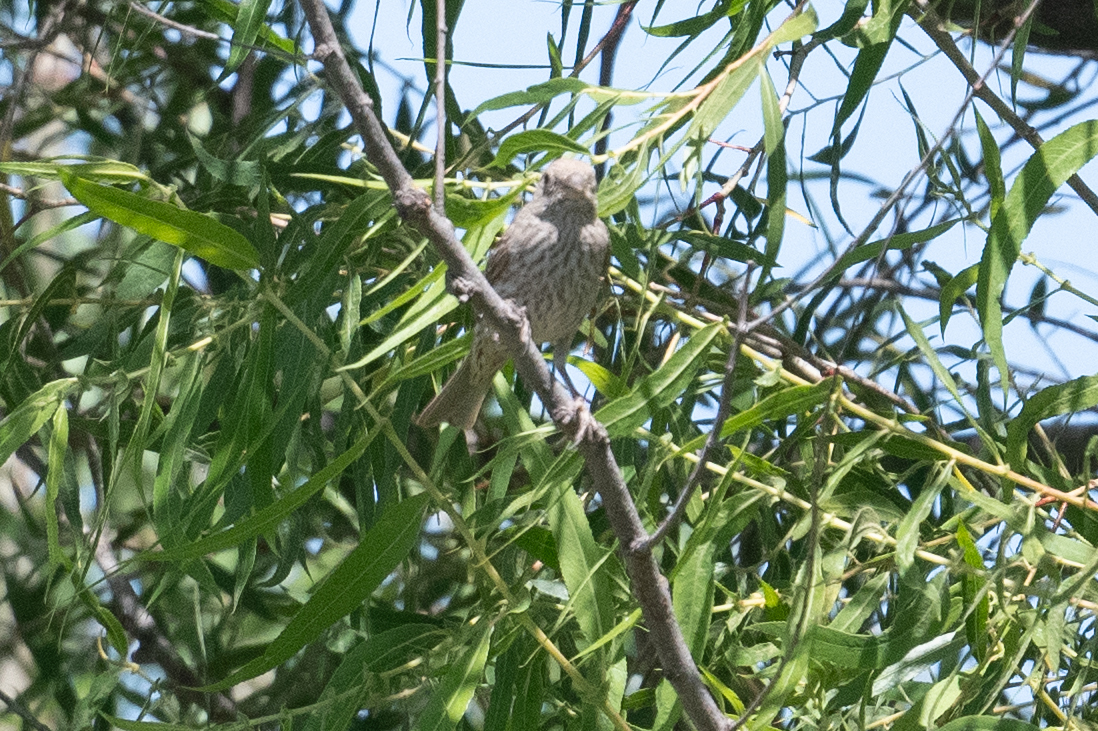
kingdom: Animalia
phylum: Chordata
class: Aves
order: Passeriformes
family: Fringillidae
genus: Haemorhous
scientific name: Haemorhous mexicanus
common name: House finch
